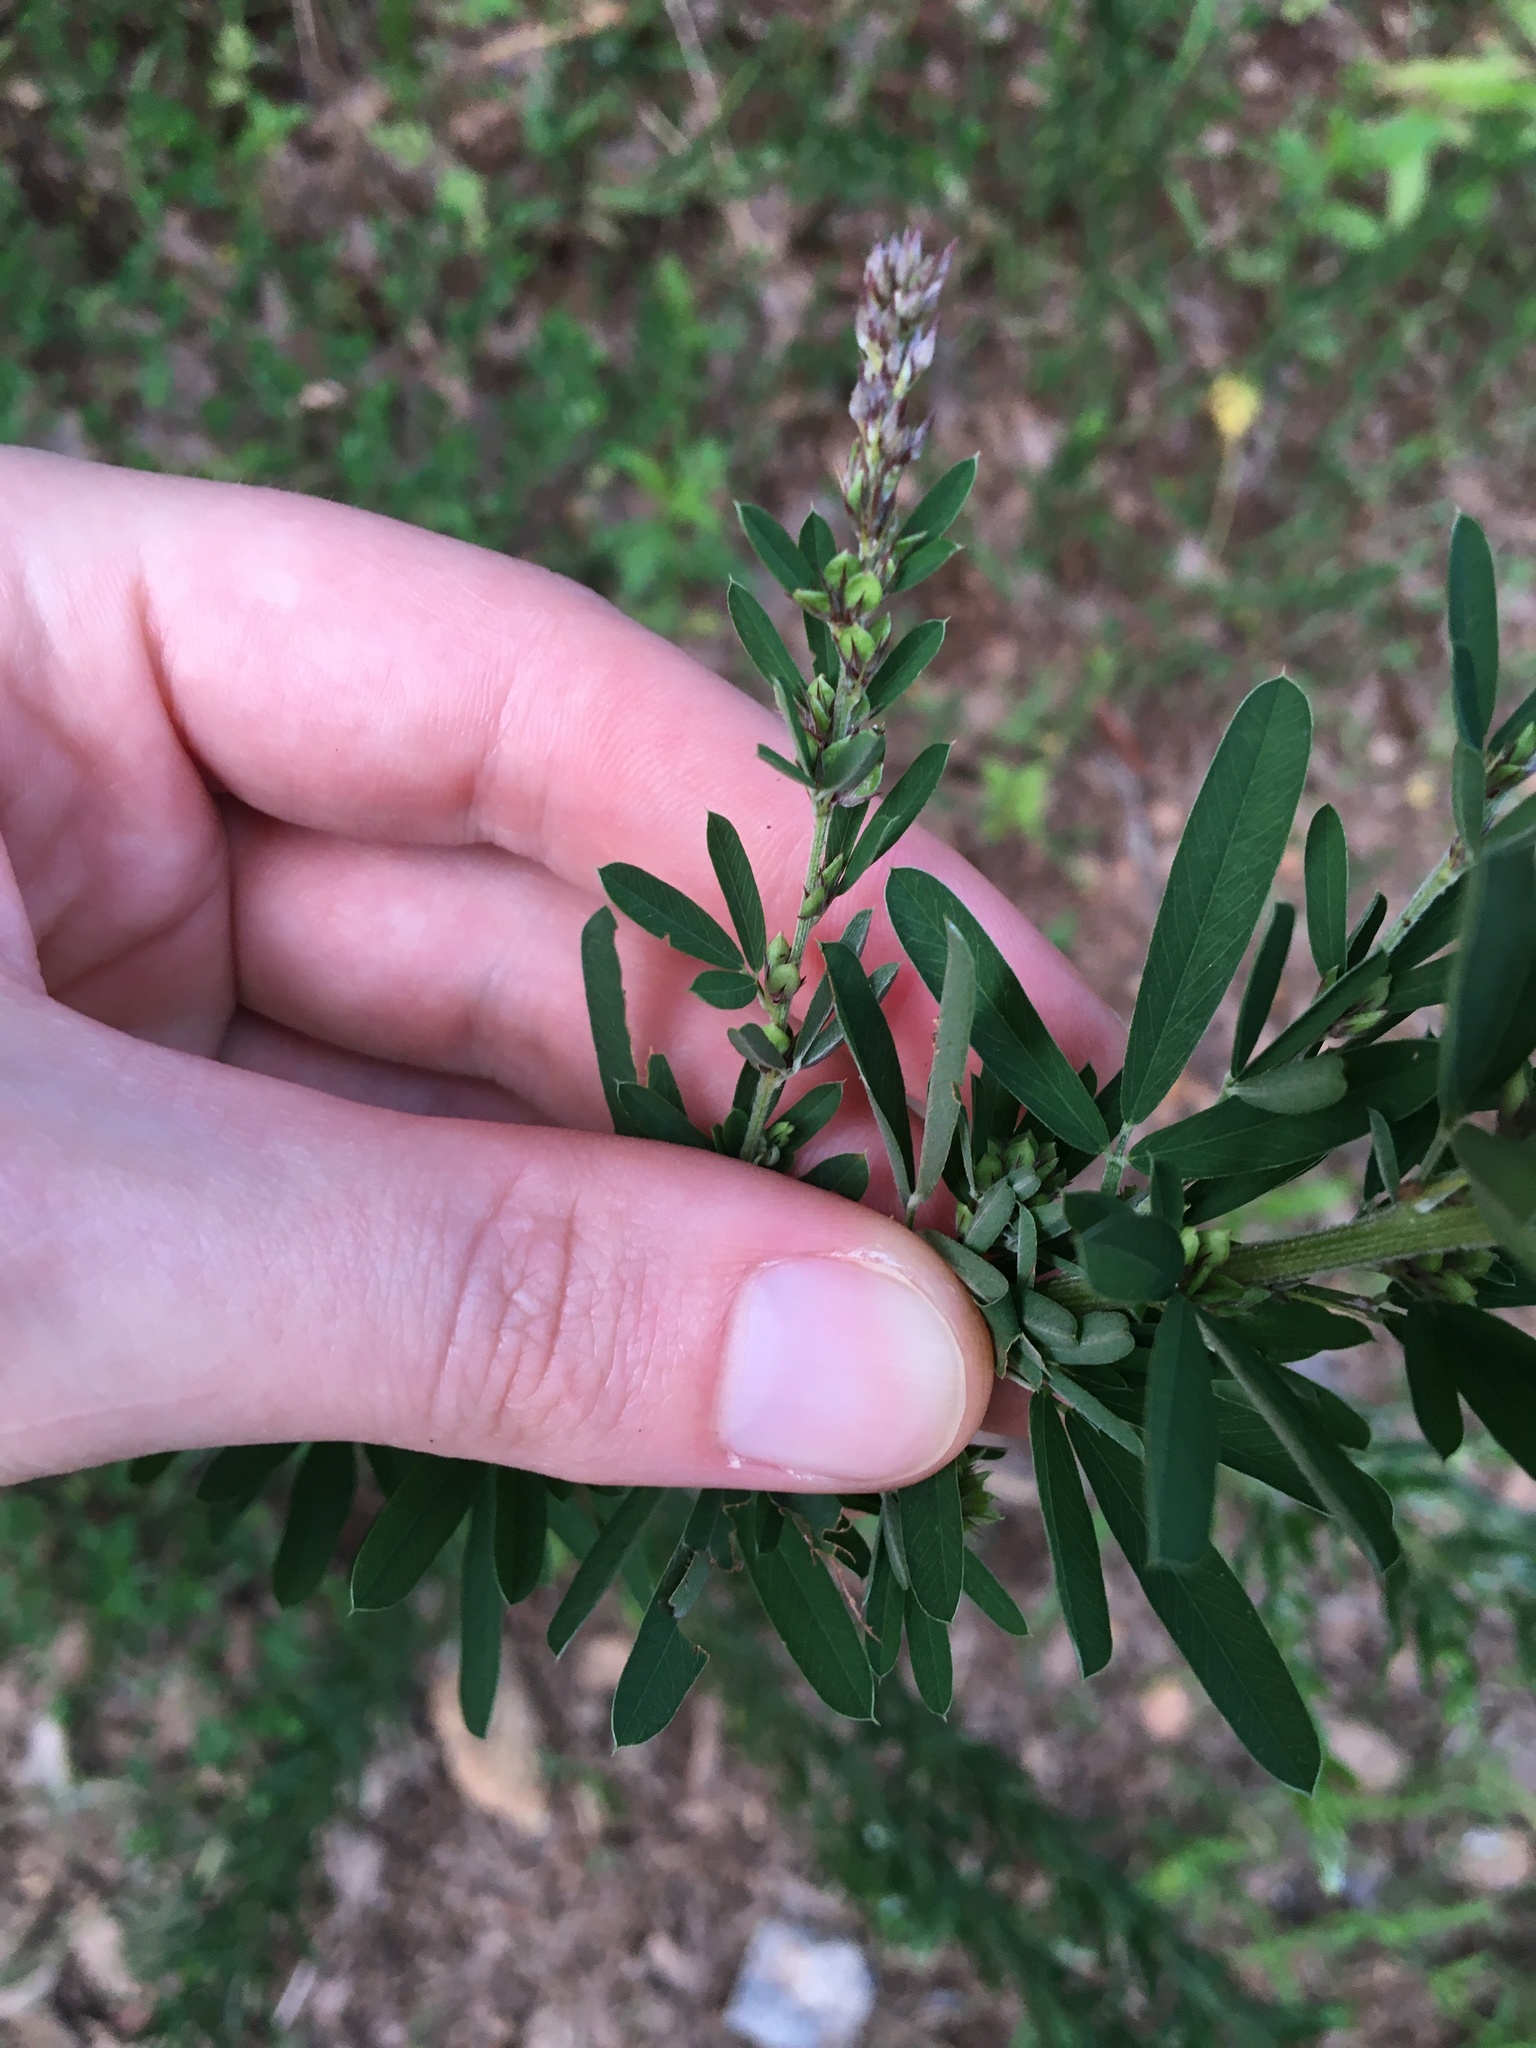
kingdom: Plantae
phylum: Tracheophyta
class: Magnoliopsida
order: Fabales
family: Fabaceae
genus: Lespedeza
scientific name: Lespedeza cuneata
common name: Chinese bush-clover
